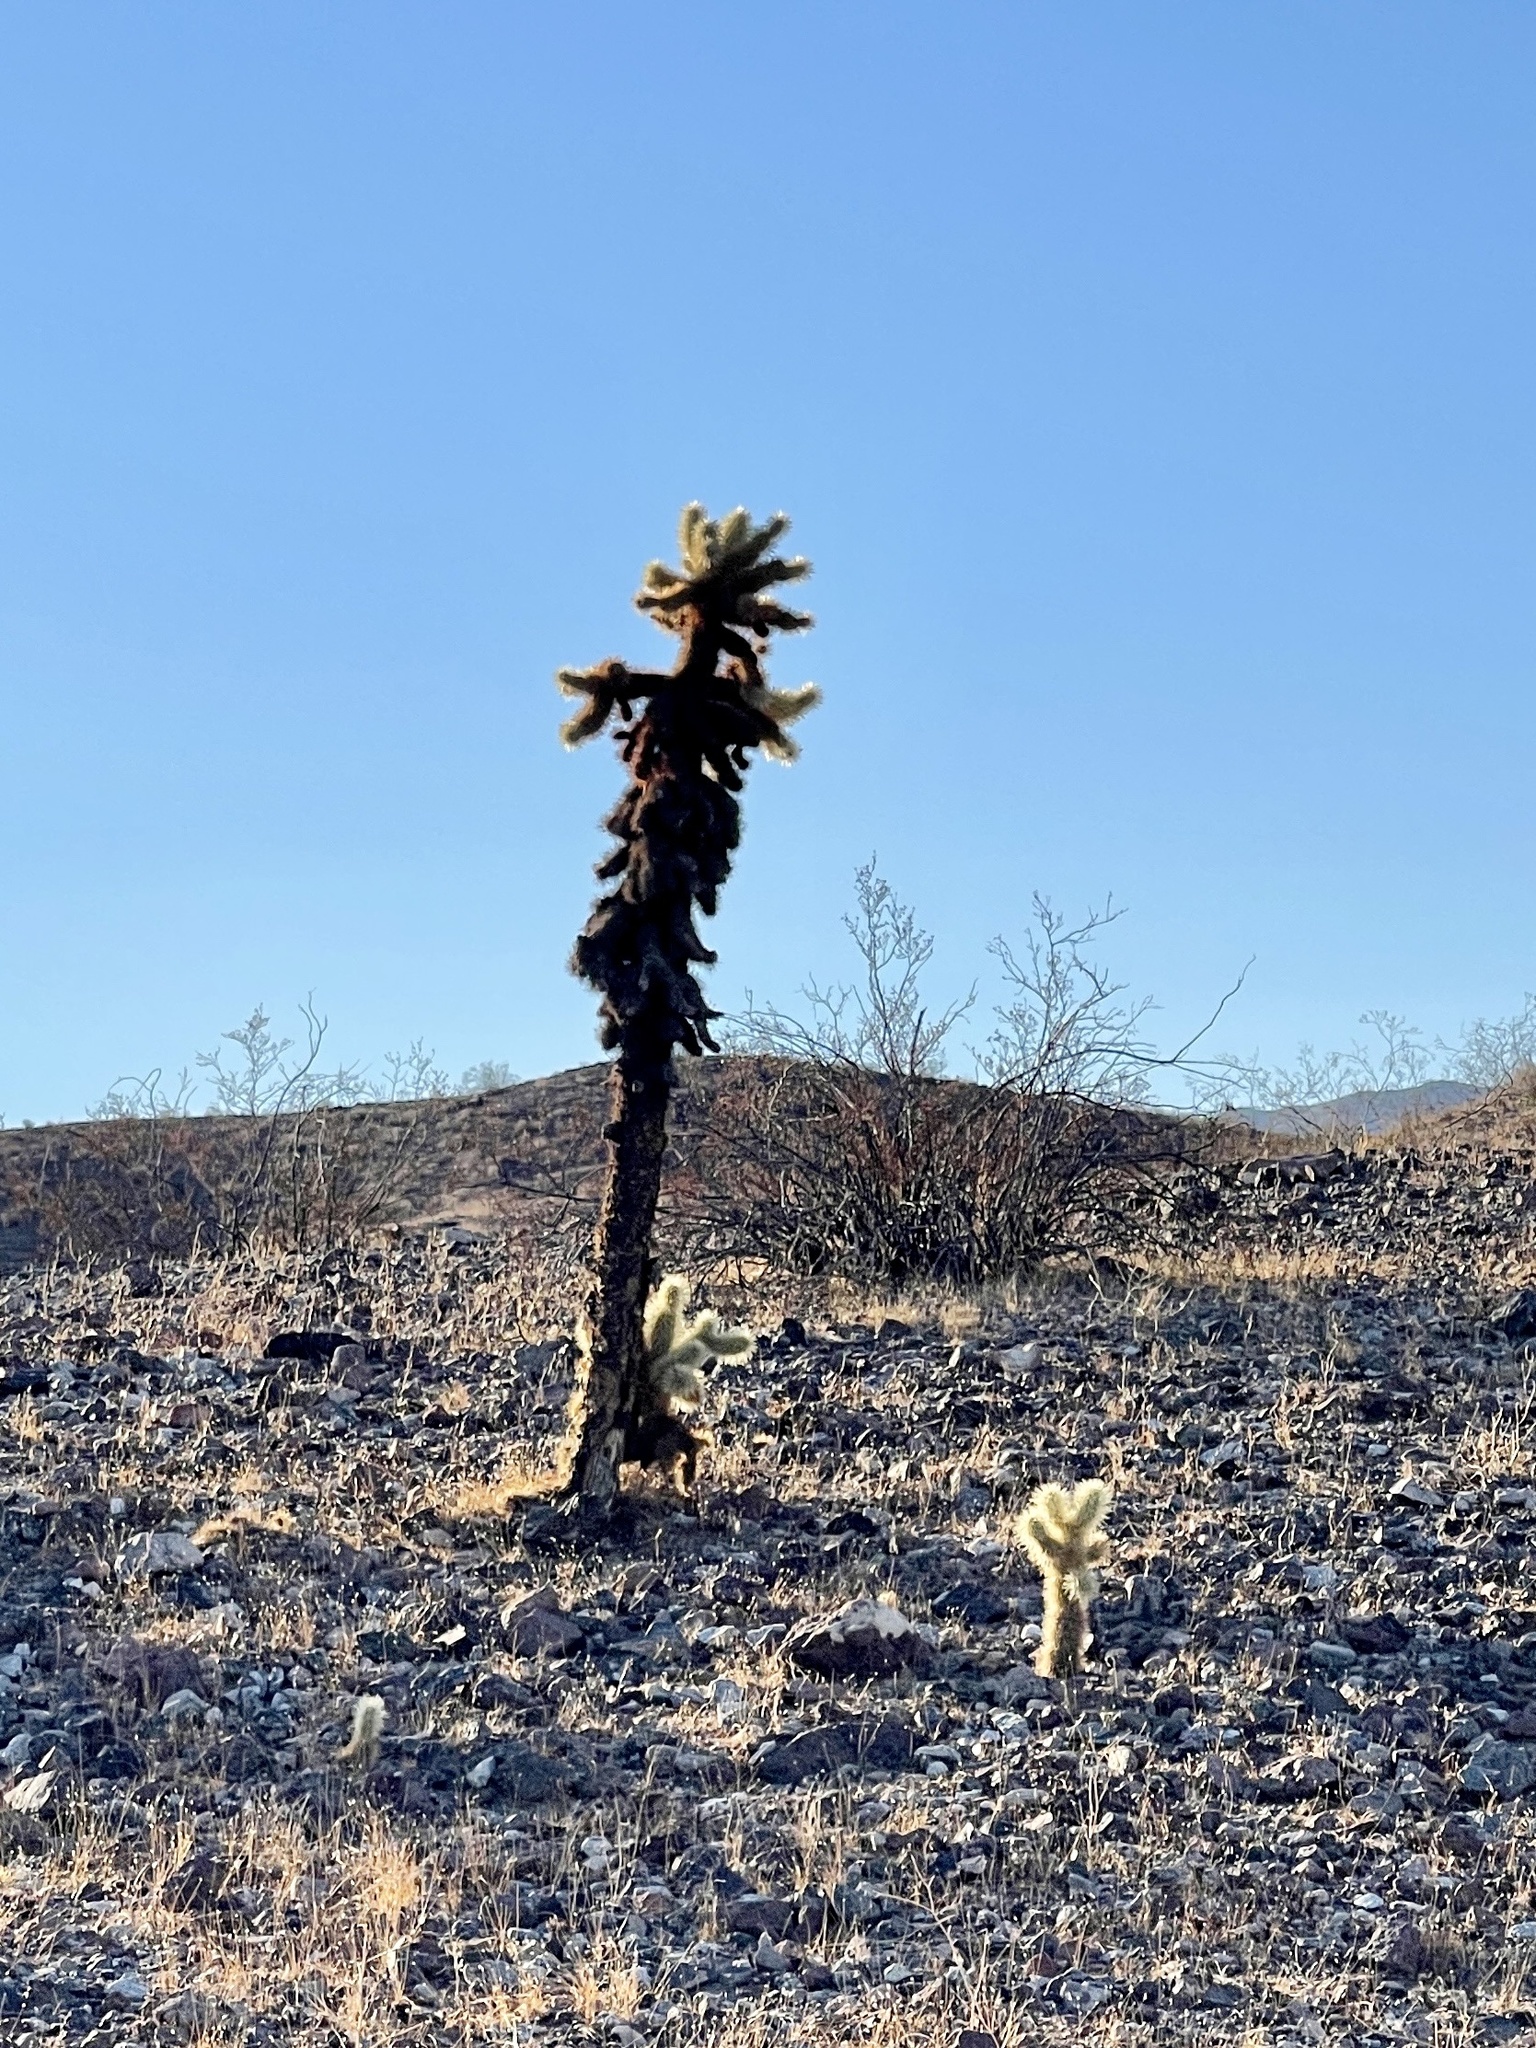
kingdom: Plantae
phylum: Tracheophyta
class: Magnoliopsida
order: Caryophyllales
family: Cactaceae
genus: Cylindropuntia
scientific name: Cylindropuntia fosbergii
